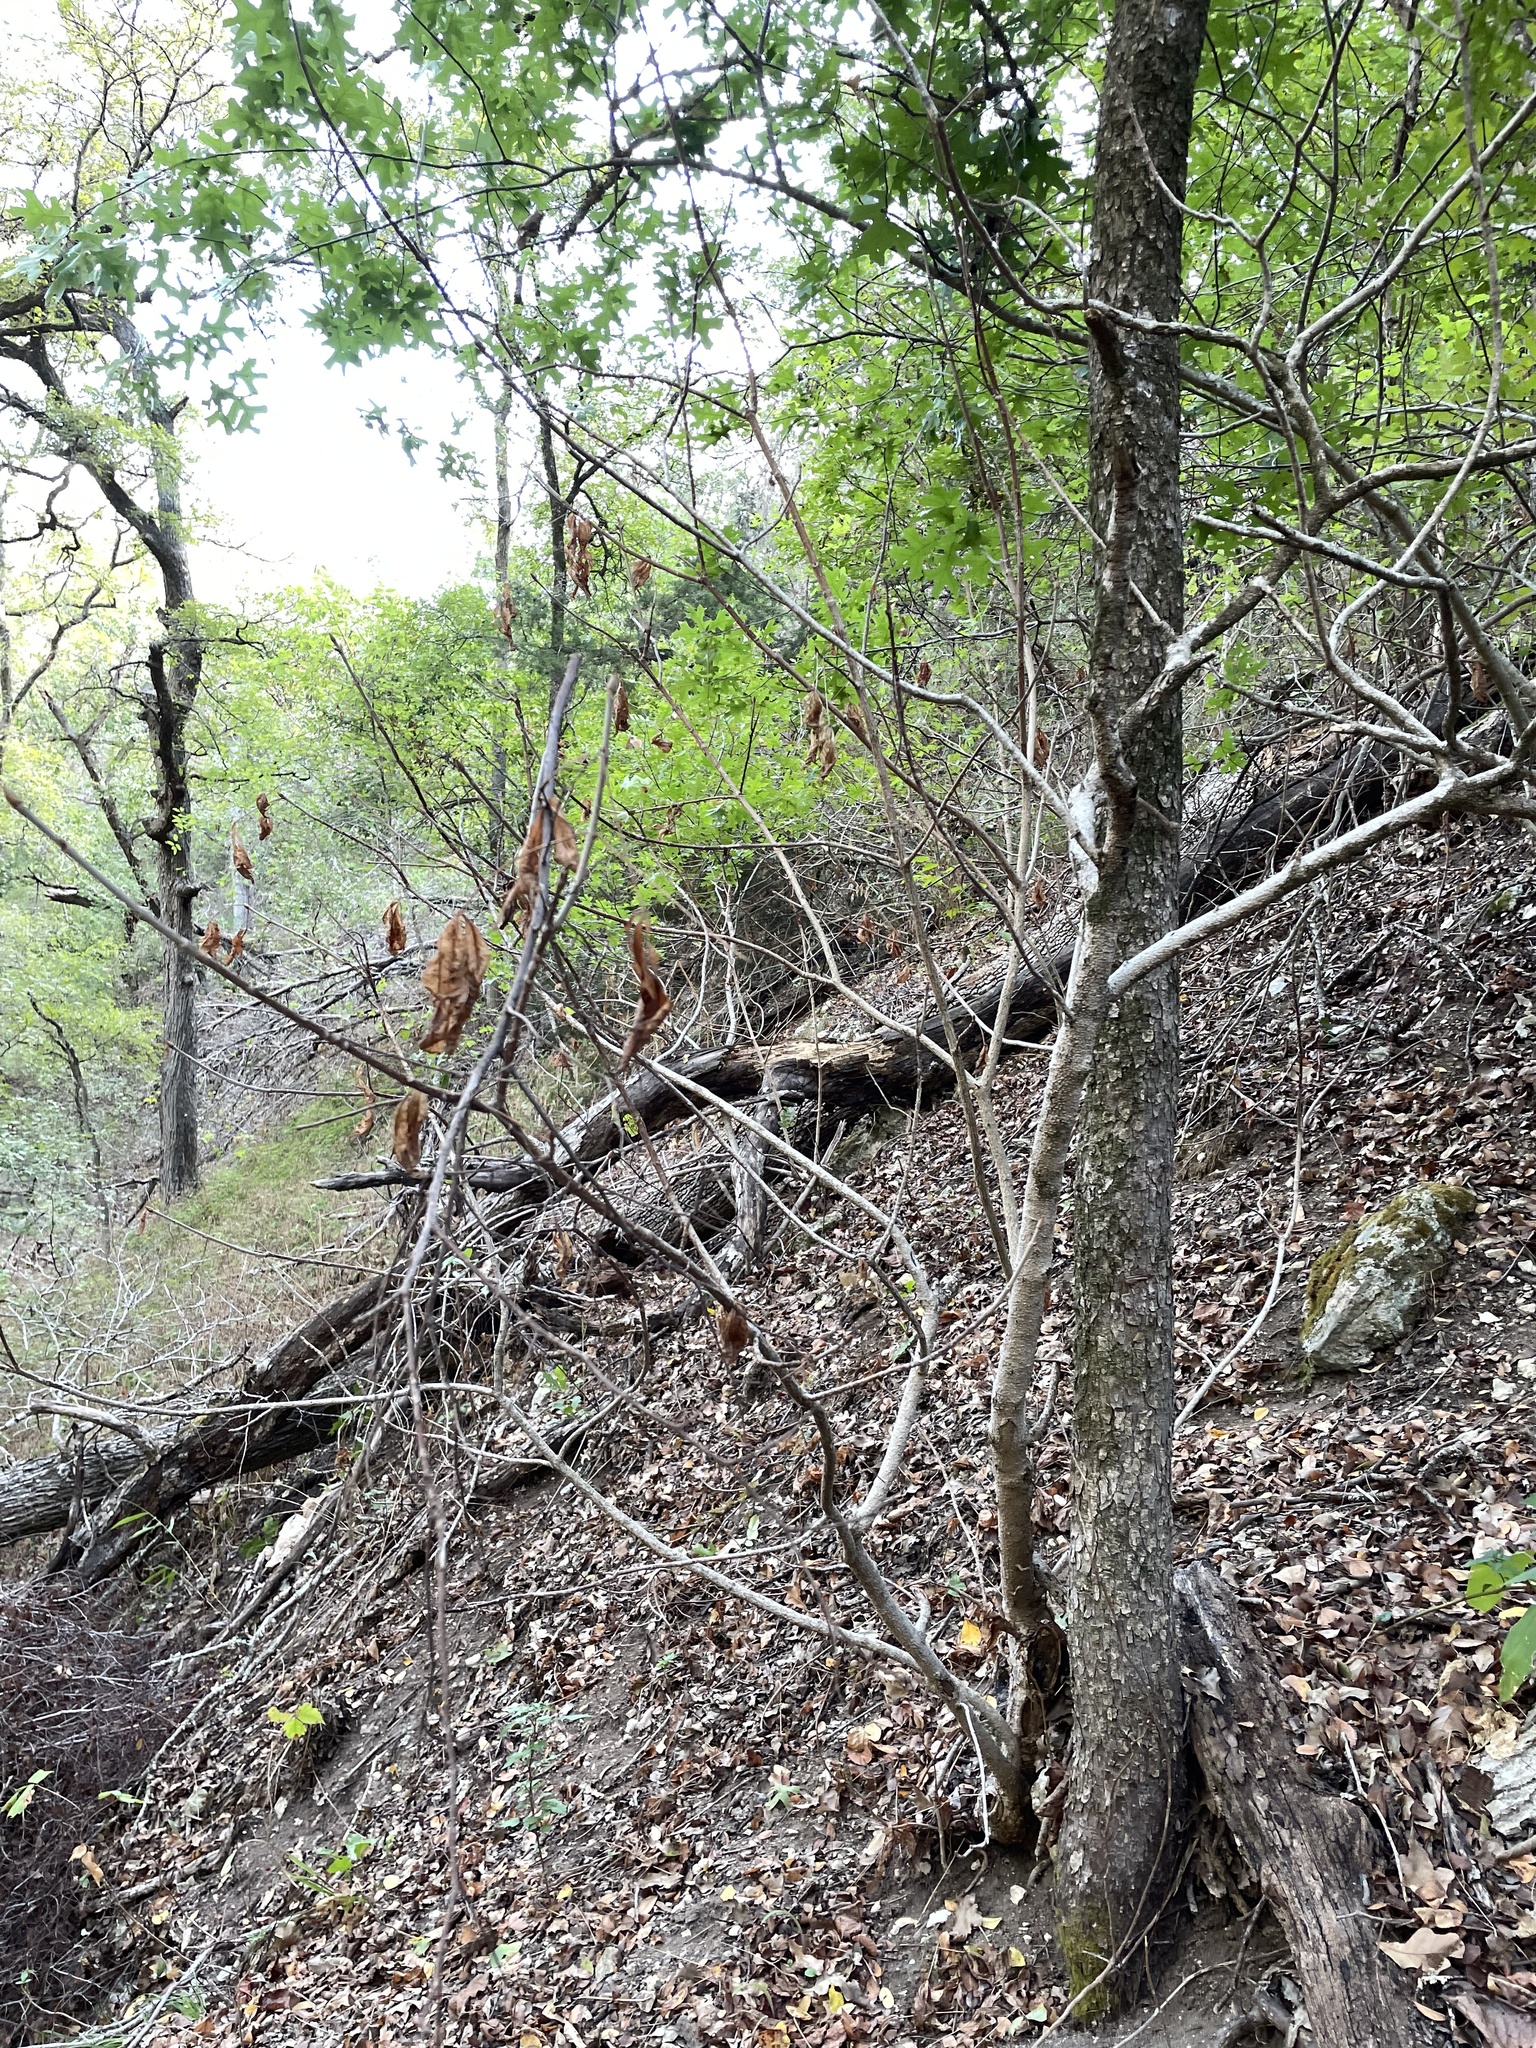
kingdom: Plantae
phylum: Tracheophyta
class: Magnoliopsida
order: Sapindales
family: Sapindaceae
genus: Aesculus
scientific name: Aesculus glabra
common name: Ohio buckeye
